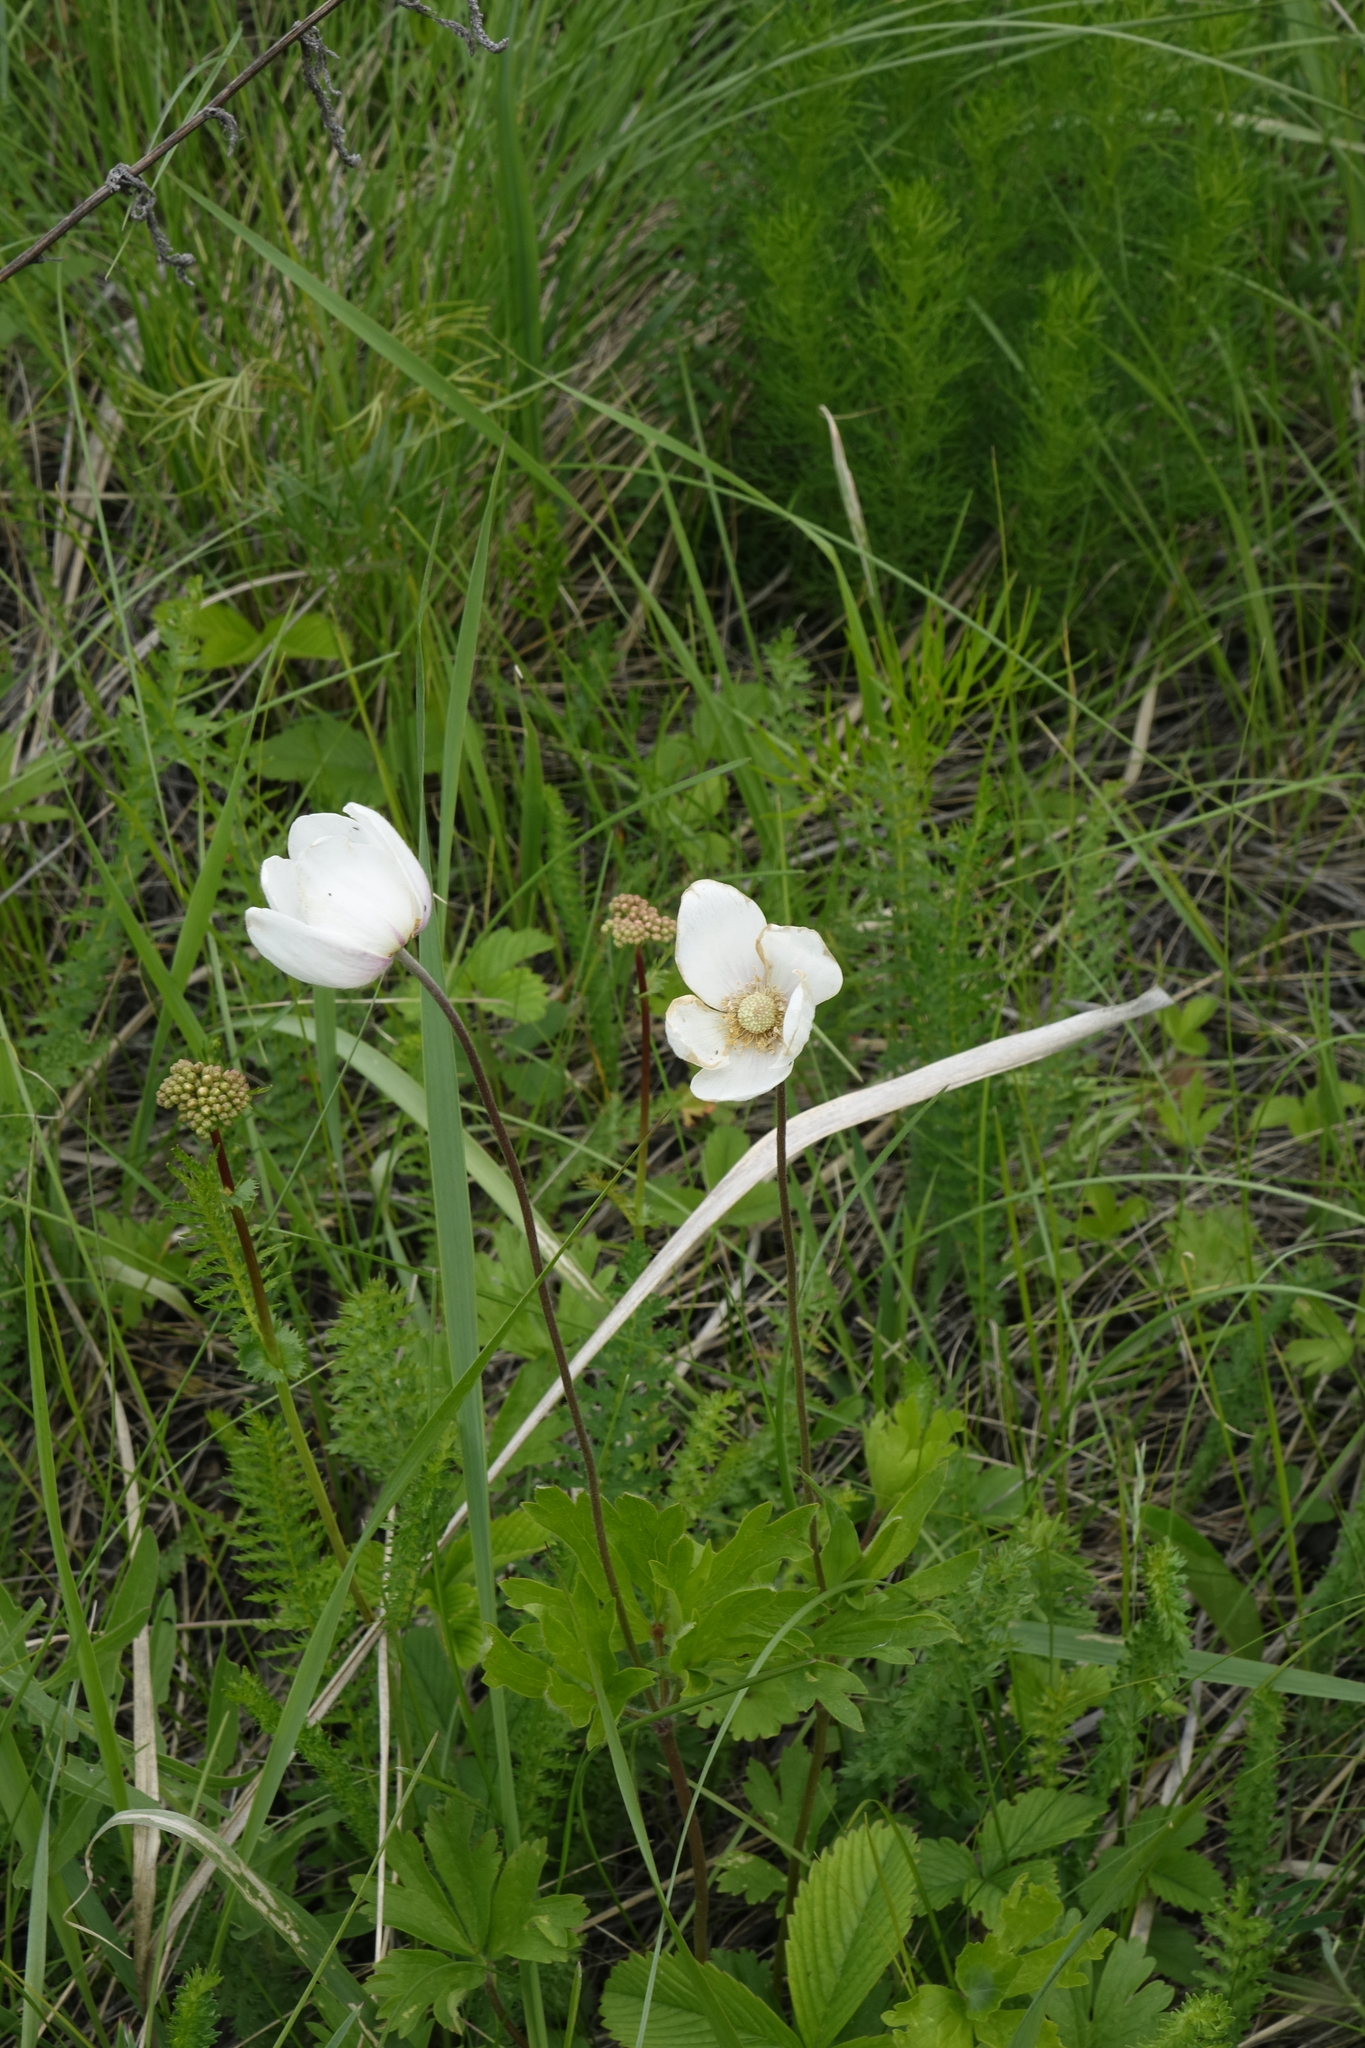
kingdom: Plantae
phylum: Tracheophyta
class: Magnoliopsida
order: Ranunculales
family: Ranunculaceae
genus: Anemone
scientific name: Anemone sylvestris
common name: Snowdrop anemone
